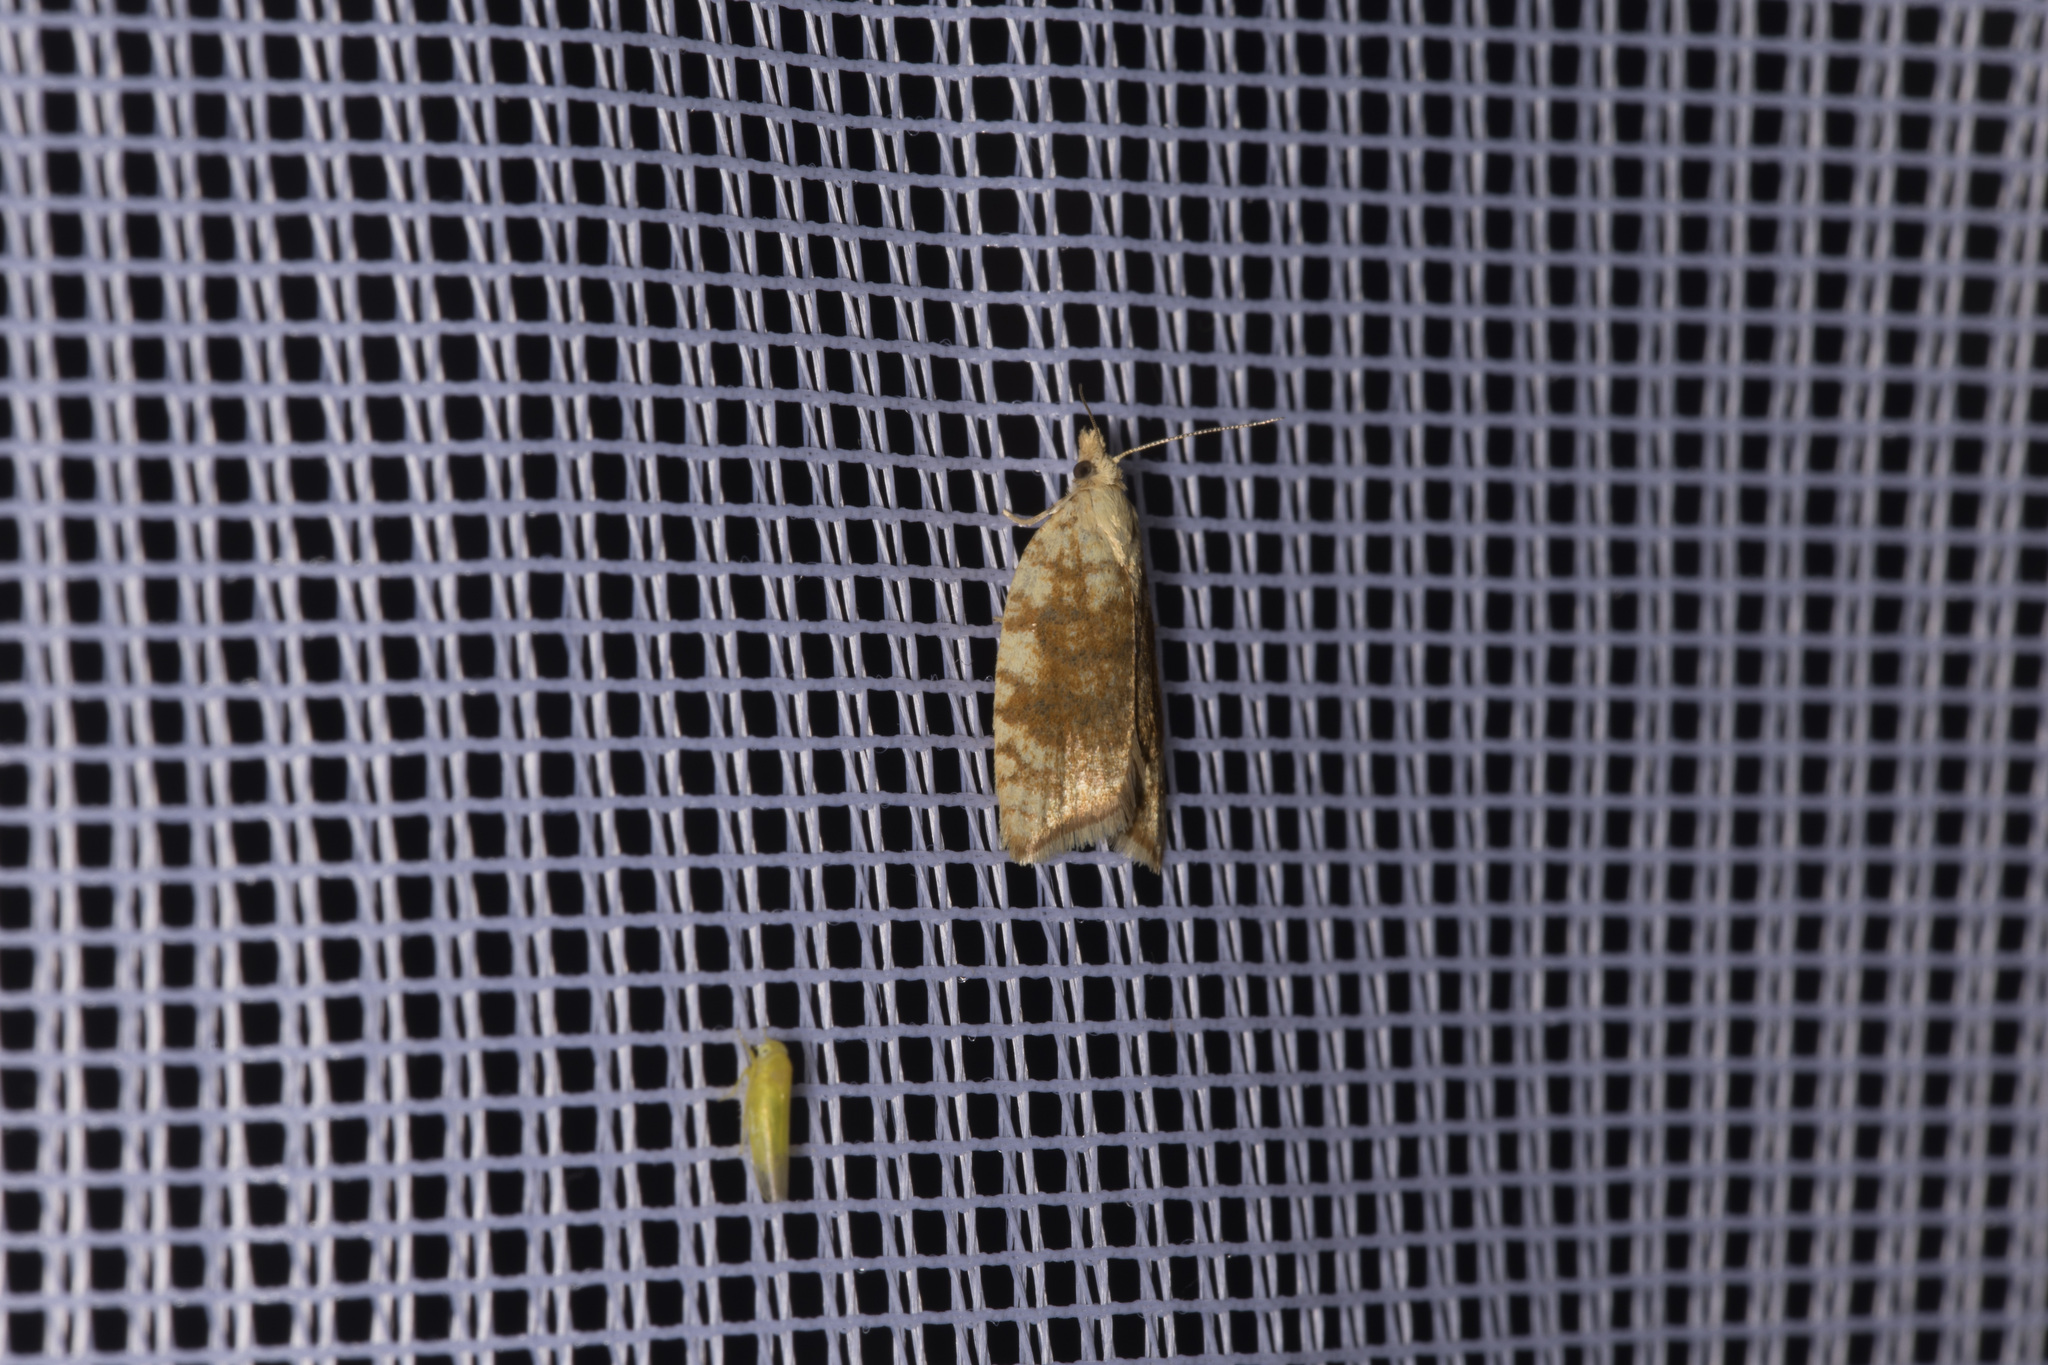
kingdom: Animalia
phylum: Arthropoda
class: Insecta
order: Lepidoptera
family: Tortricidae
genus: Aleimma
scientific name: Aleimma loeflingiana
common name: Yellow oak button
